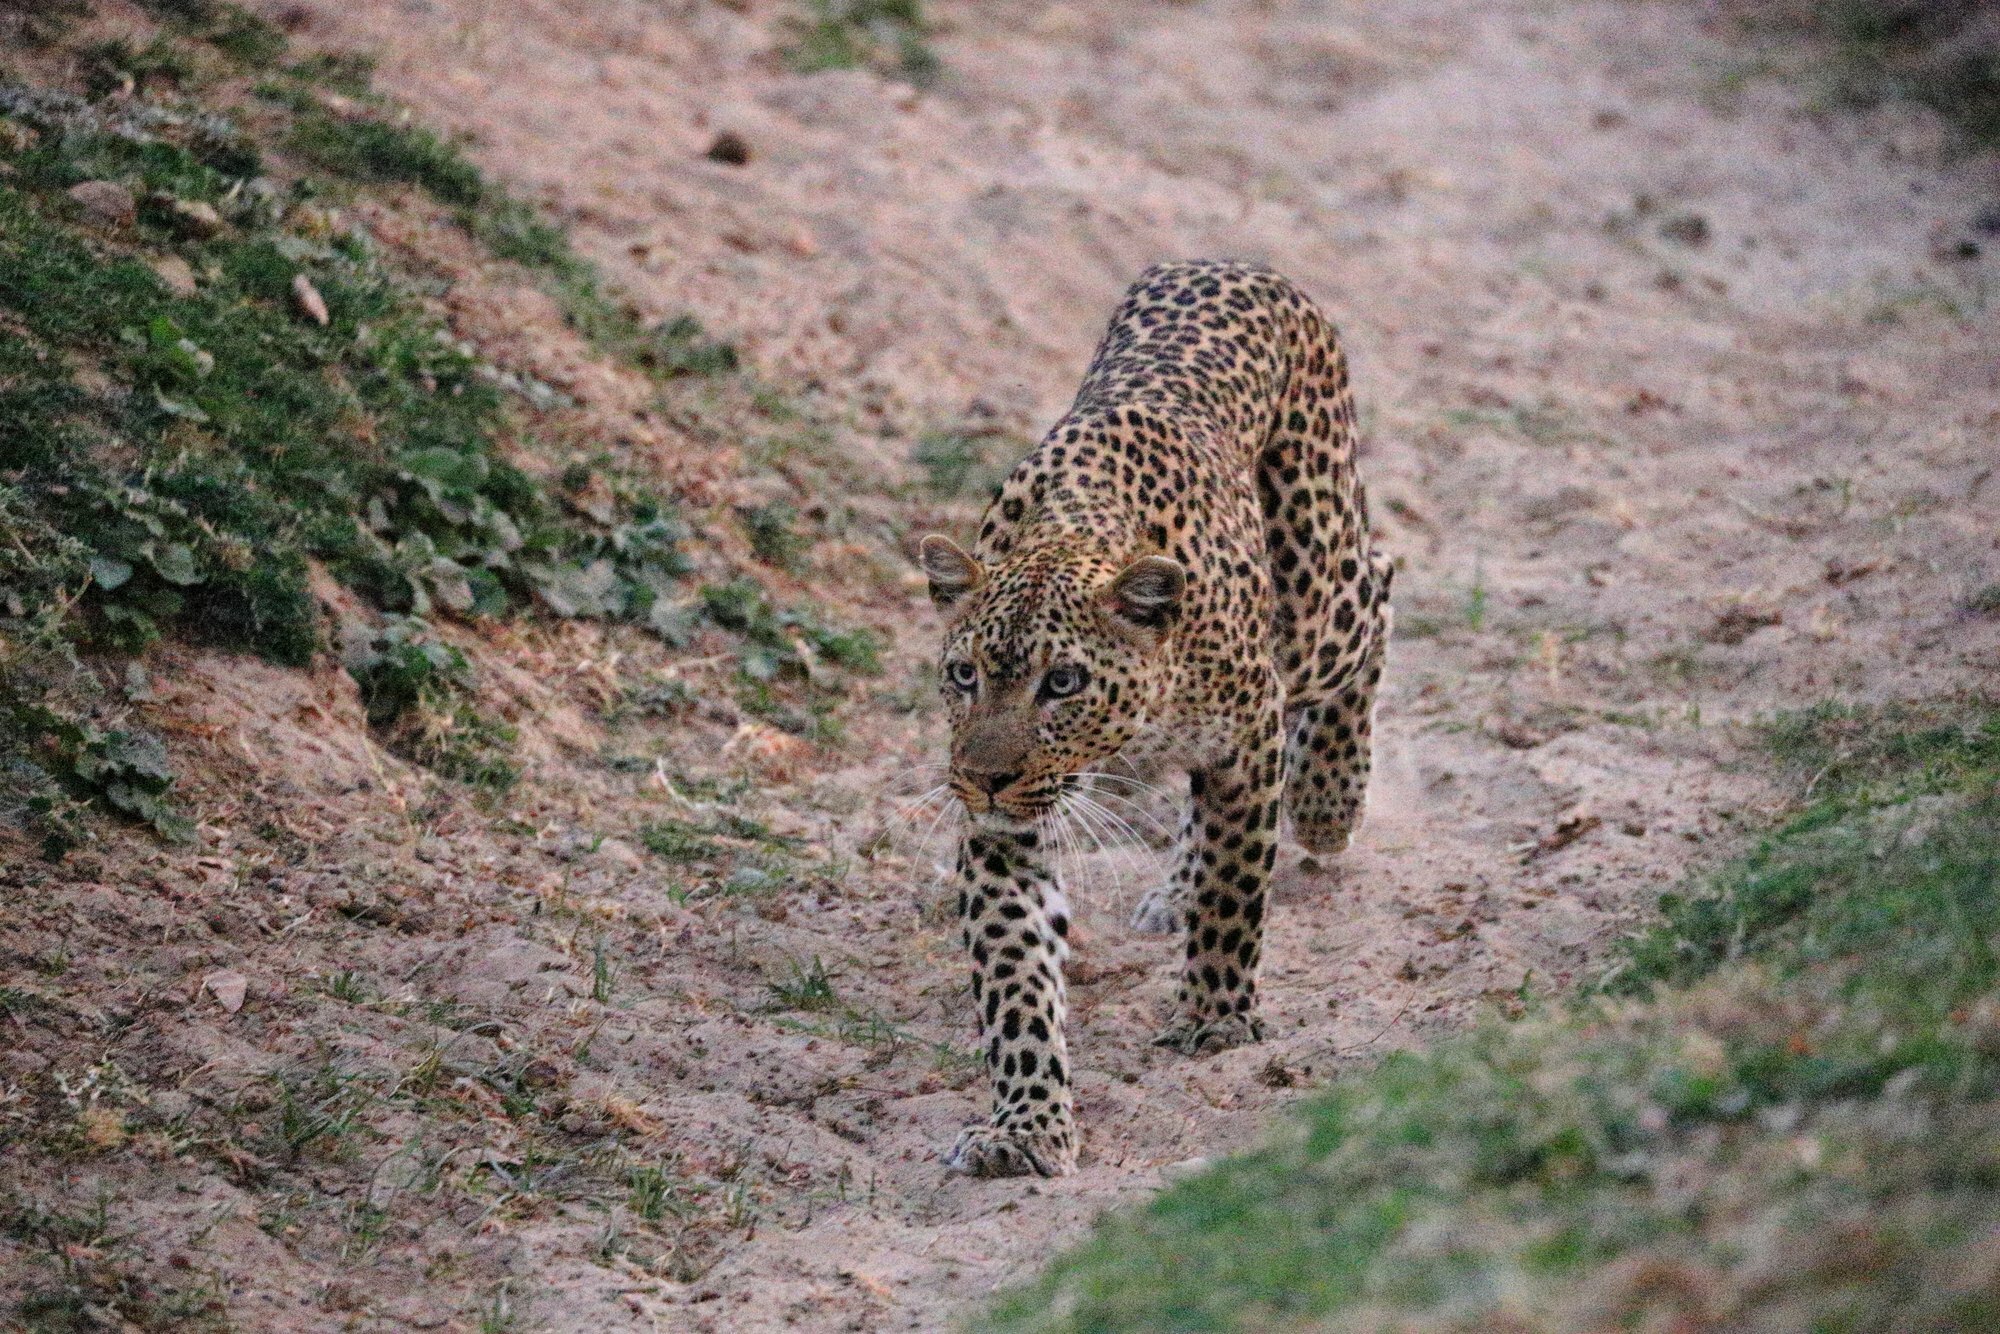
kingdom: Animalia
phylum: Chordata
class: Mammalia
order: Carnivora
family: Felidae
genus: Panthera
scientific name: Panthera pardus
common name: Leopard
